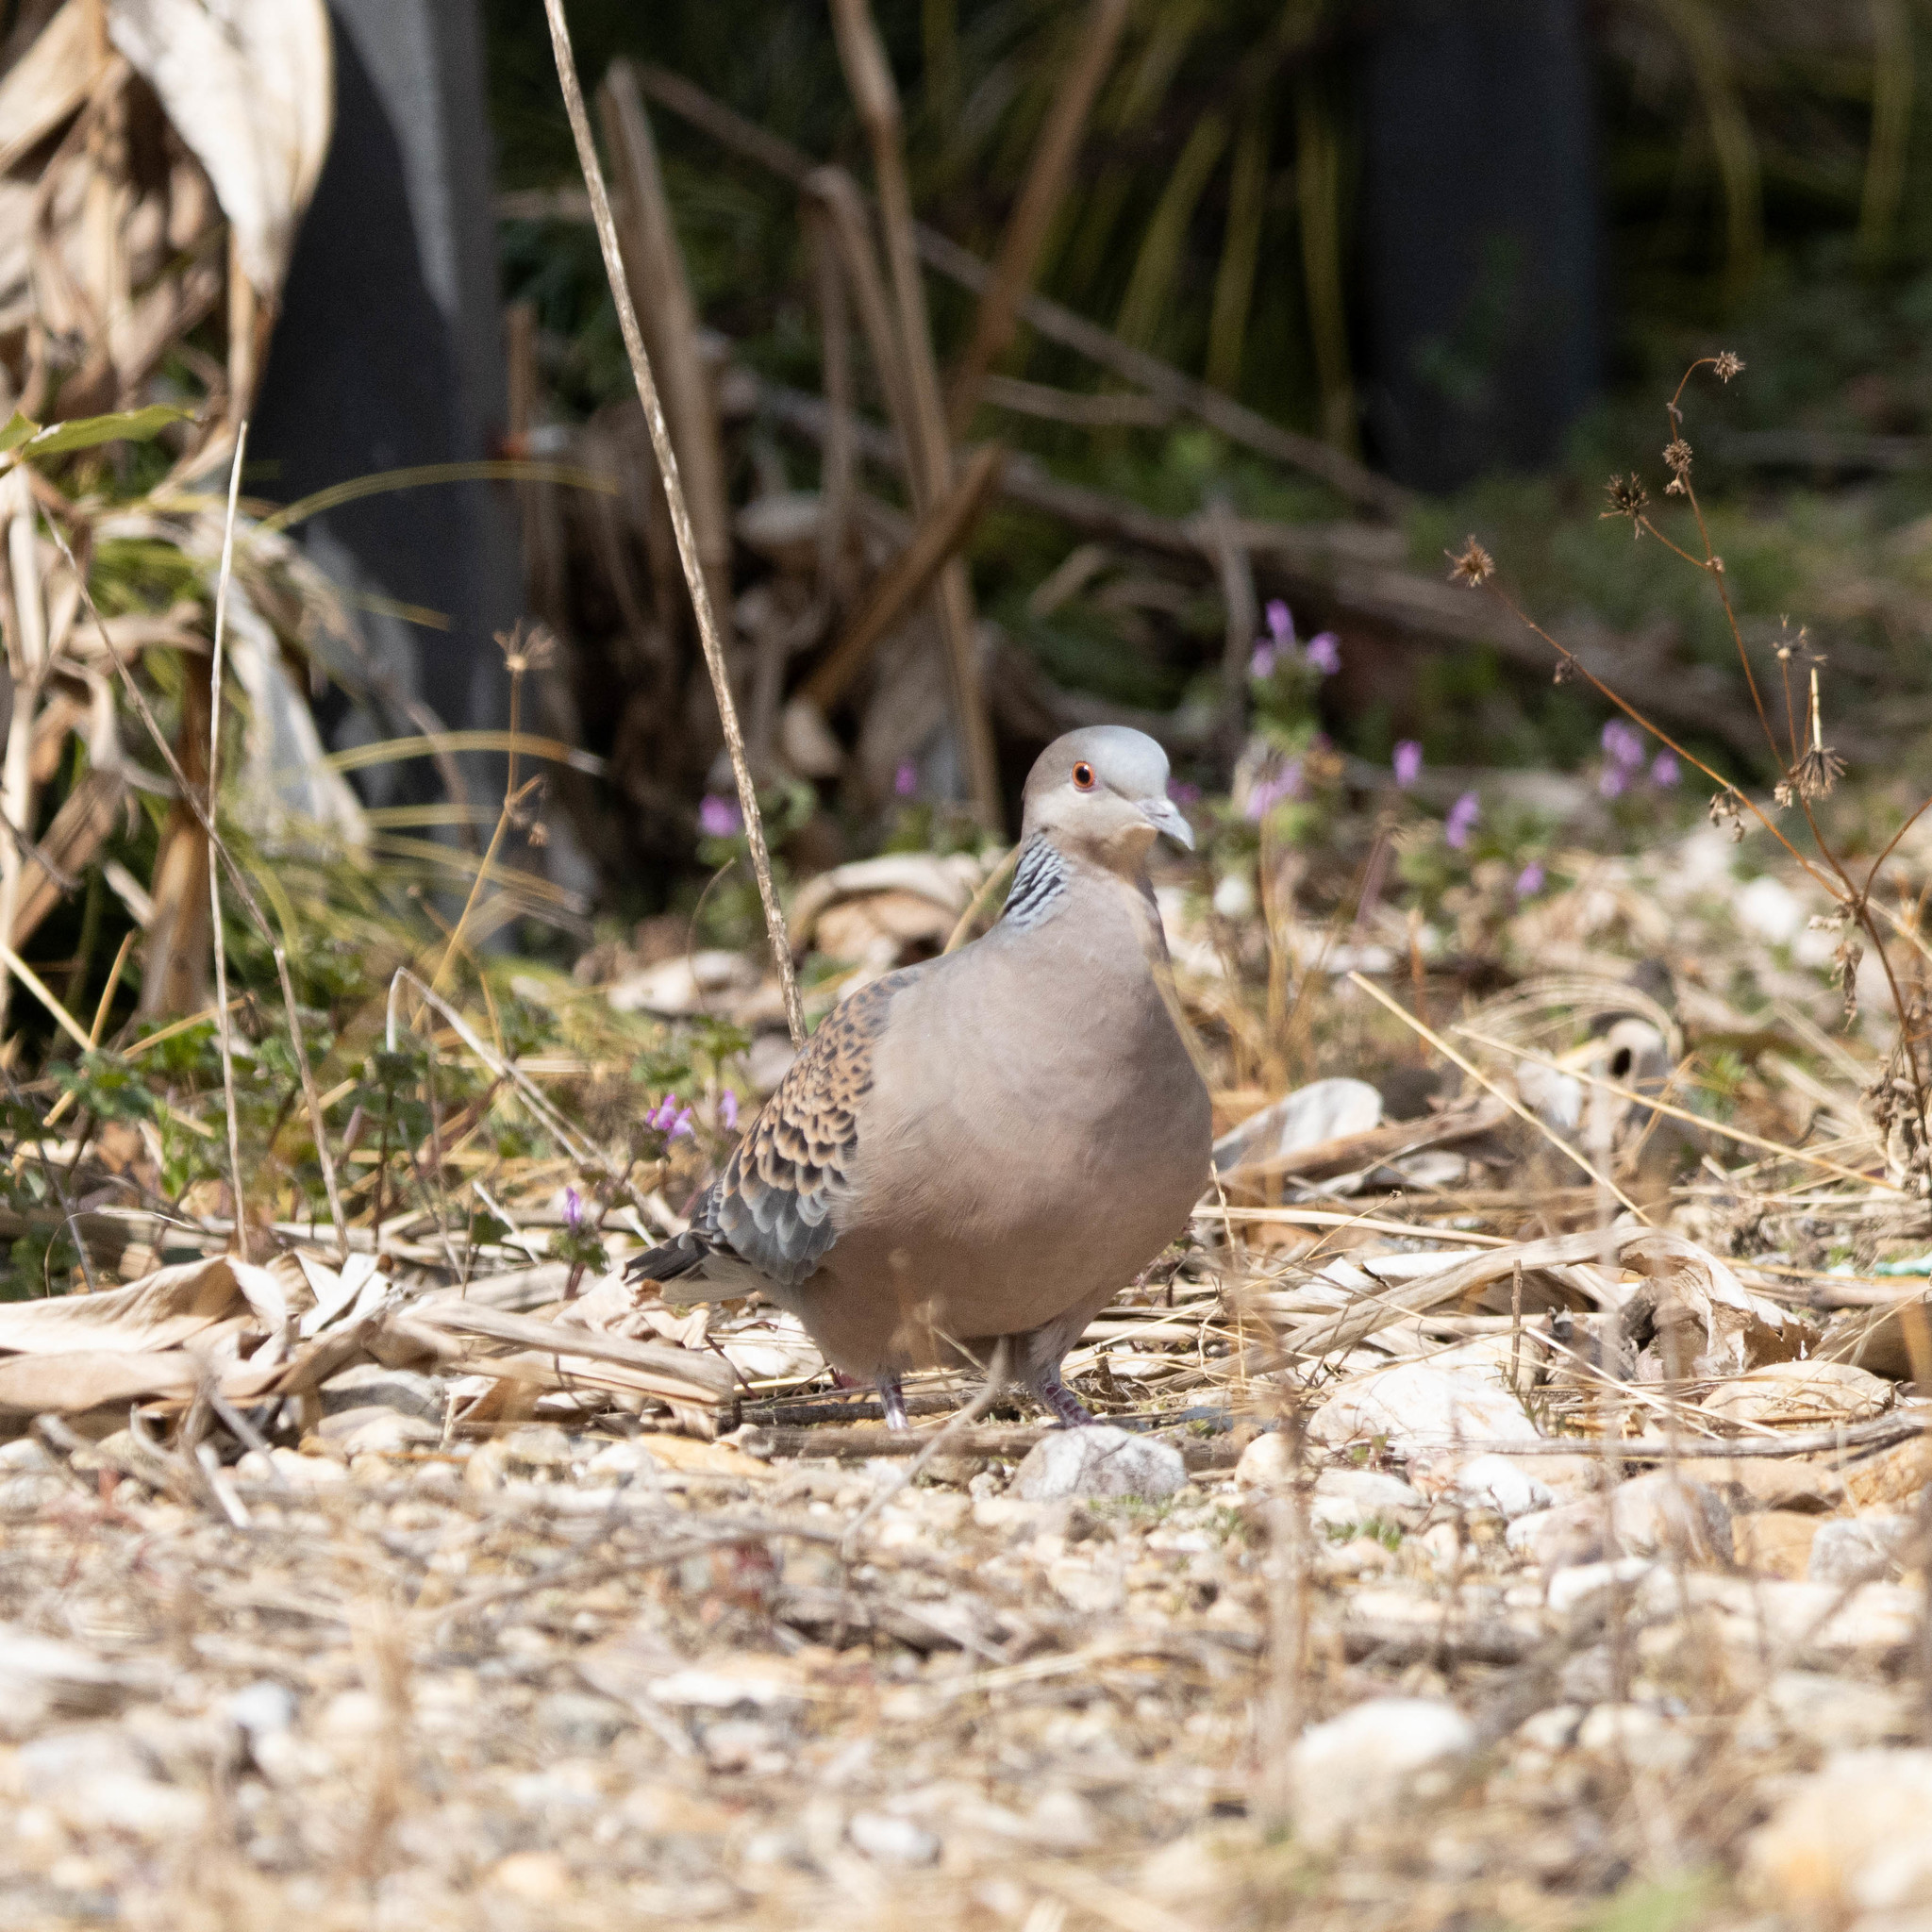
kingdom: Animalia
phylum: Chordata
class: Aves
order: Columbiformes
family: Columbidae
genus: Streptopelia
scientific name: Streptopelia orientalis
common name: Oriental turtle dove
